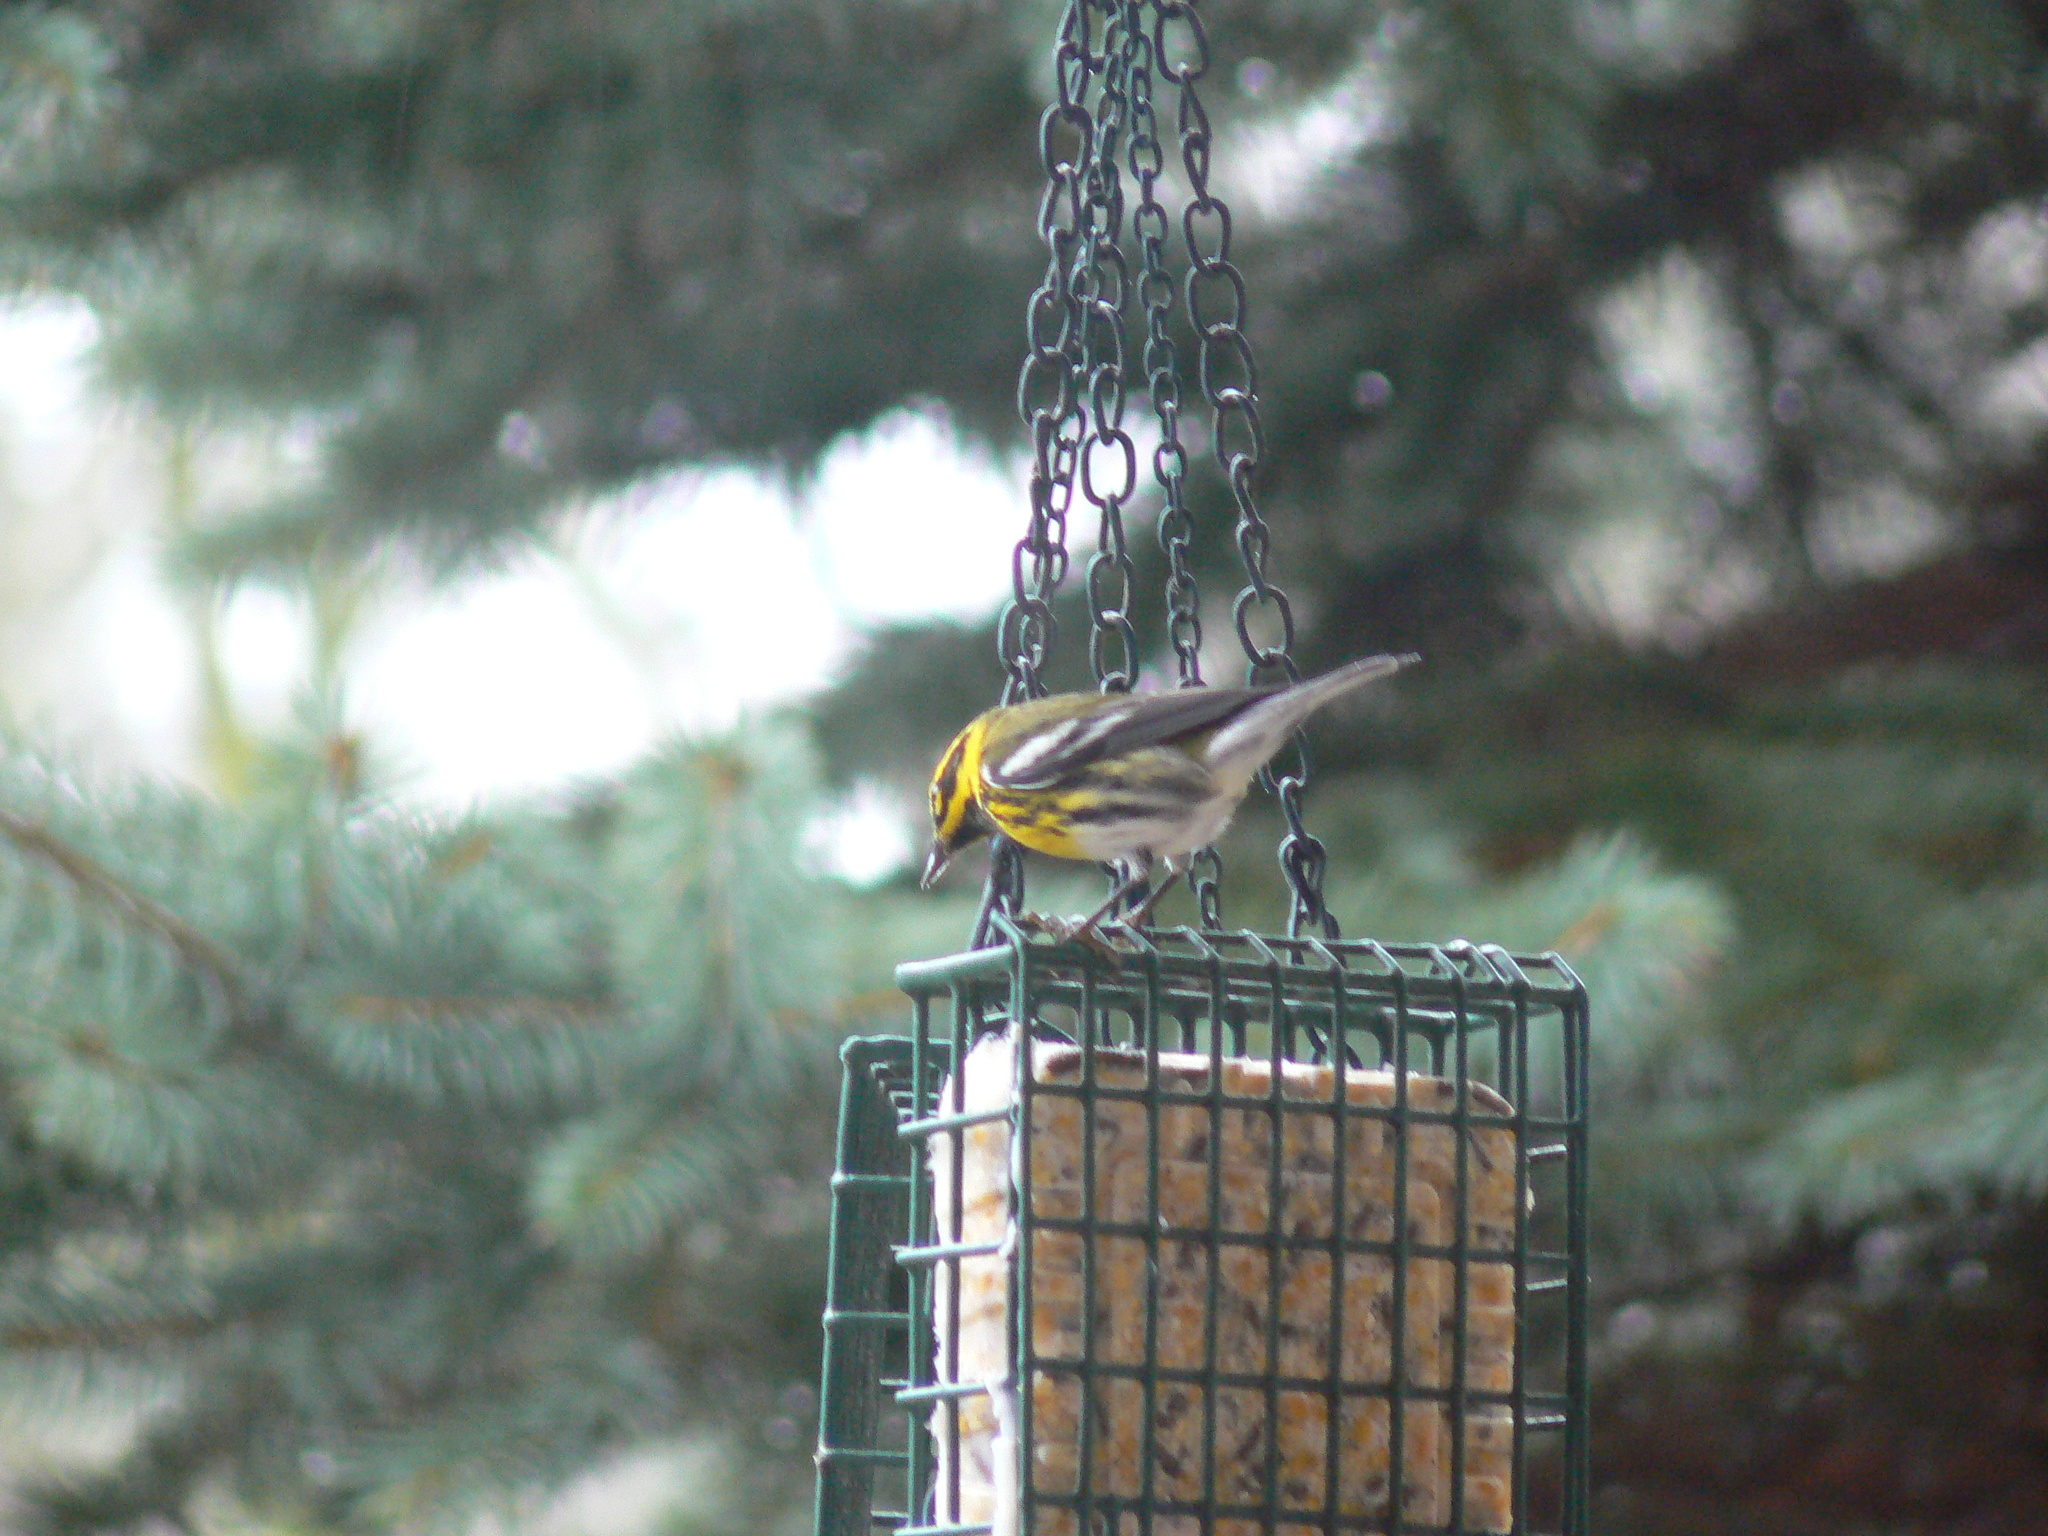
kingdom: Animalia
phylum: Chordata
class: Aves
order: Passeriformes
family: Parulidae
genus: Setophaga
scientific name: Setophaga townsendi
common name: Townsend's warbler
